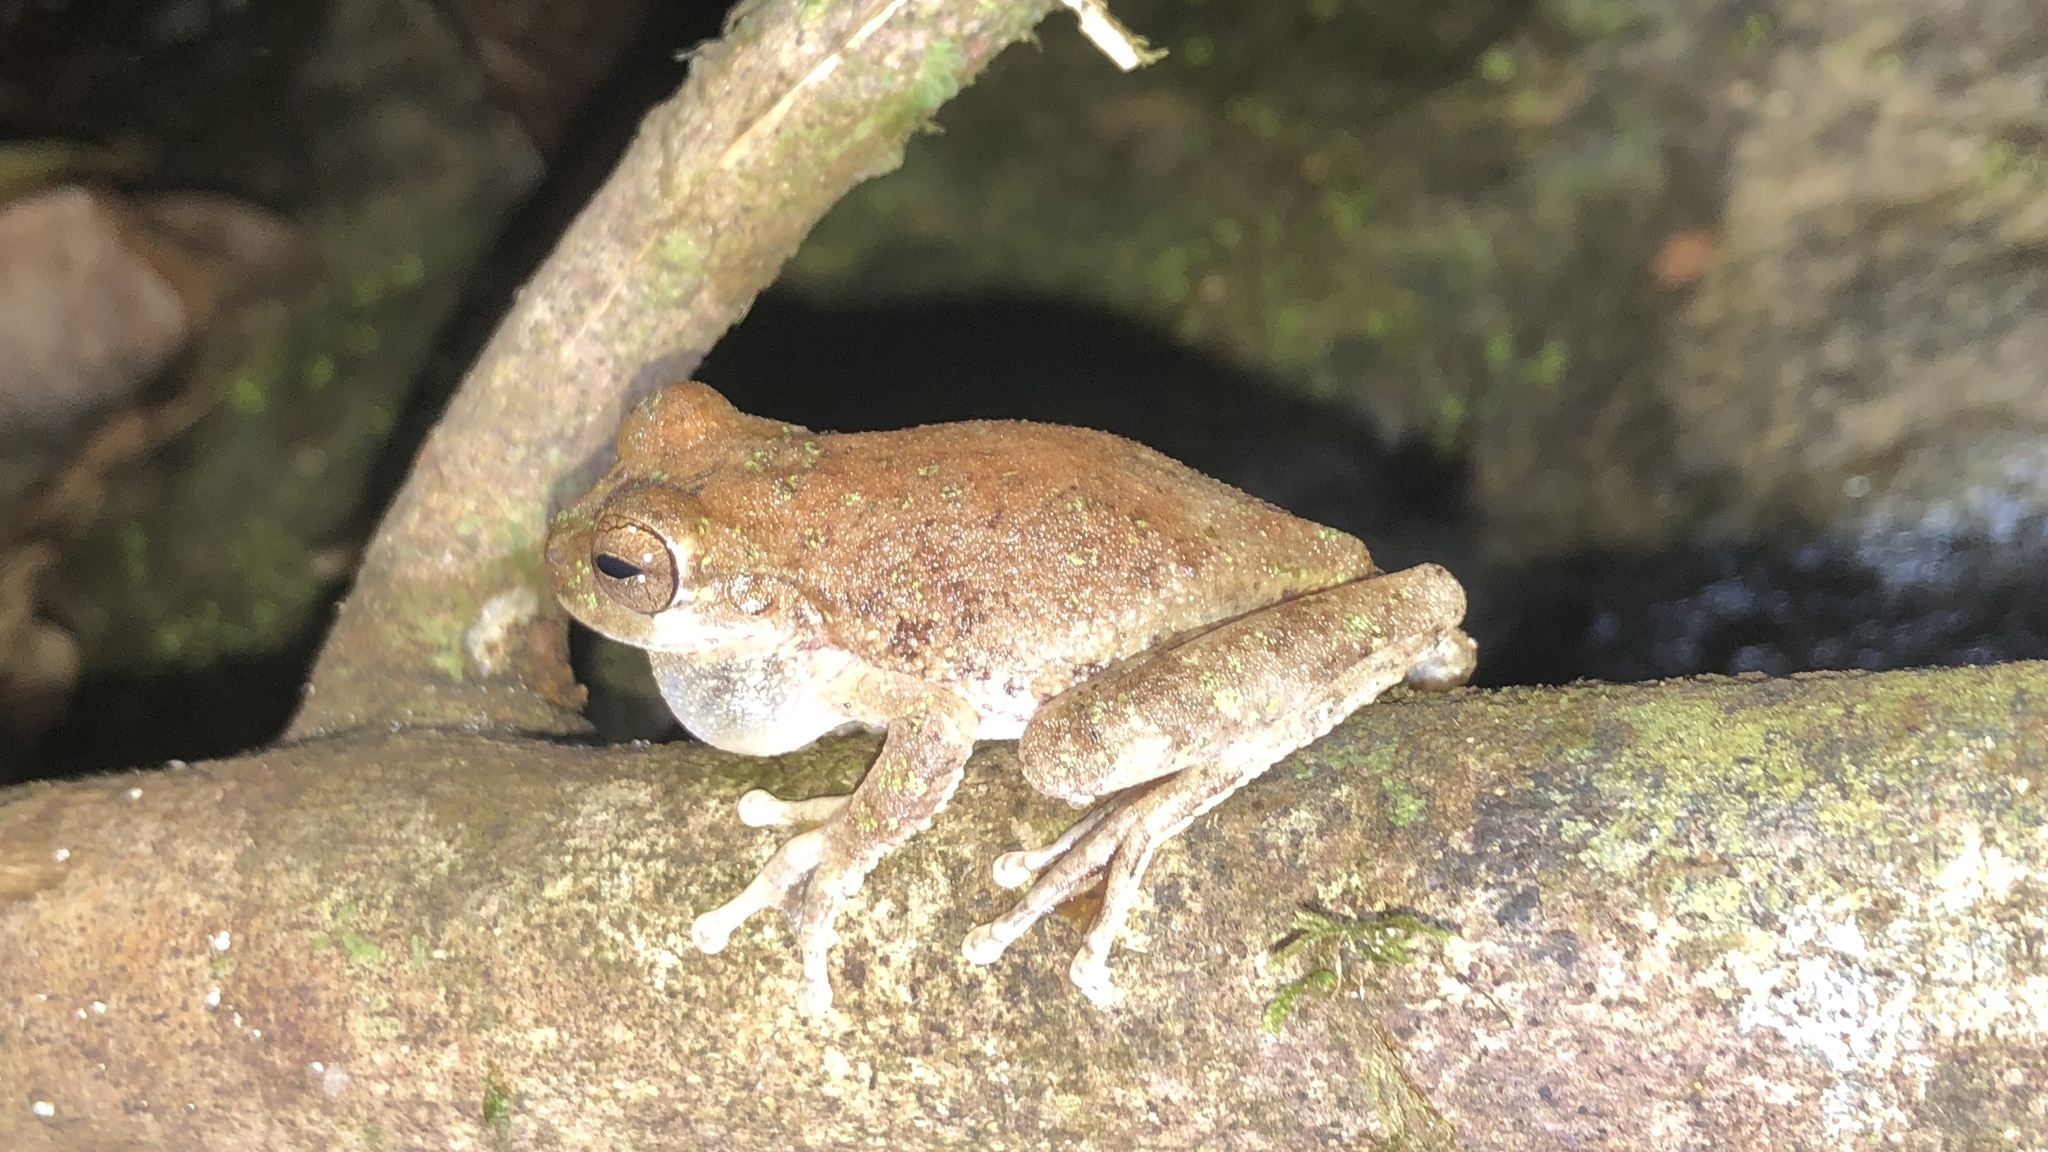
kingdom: Animalia
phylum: Chordata
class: Amphibia
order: Anura
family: Hylidae
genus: Smilisca
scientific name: Smilisca sila
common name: Panama cross-banded treefrog
